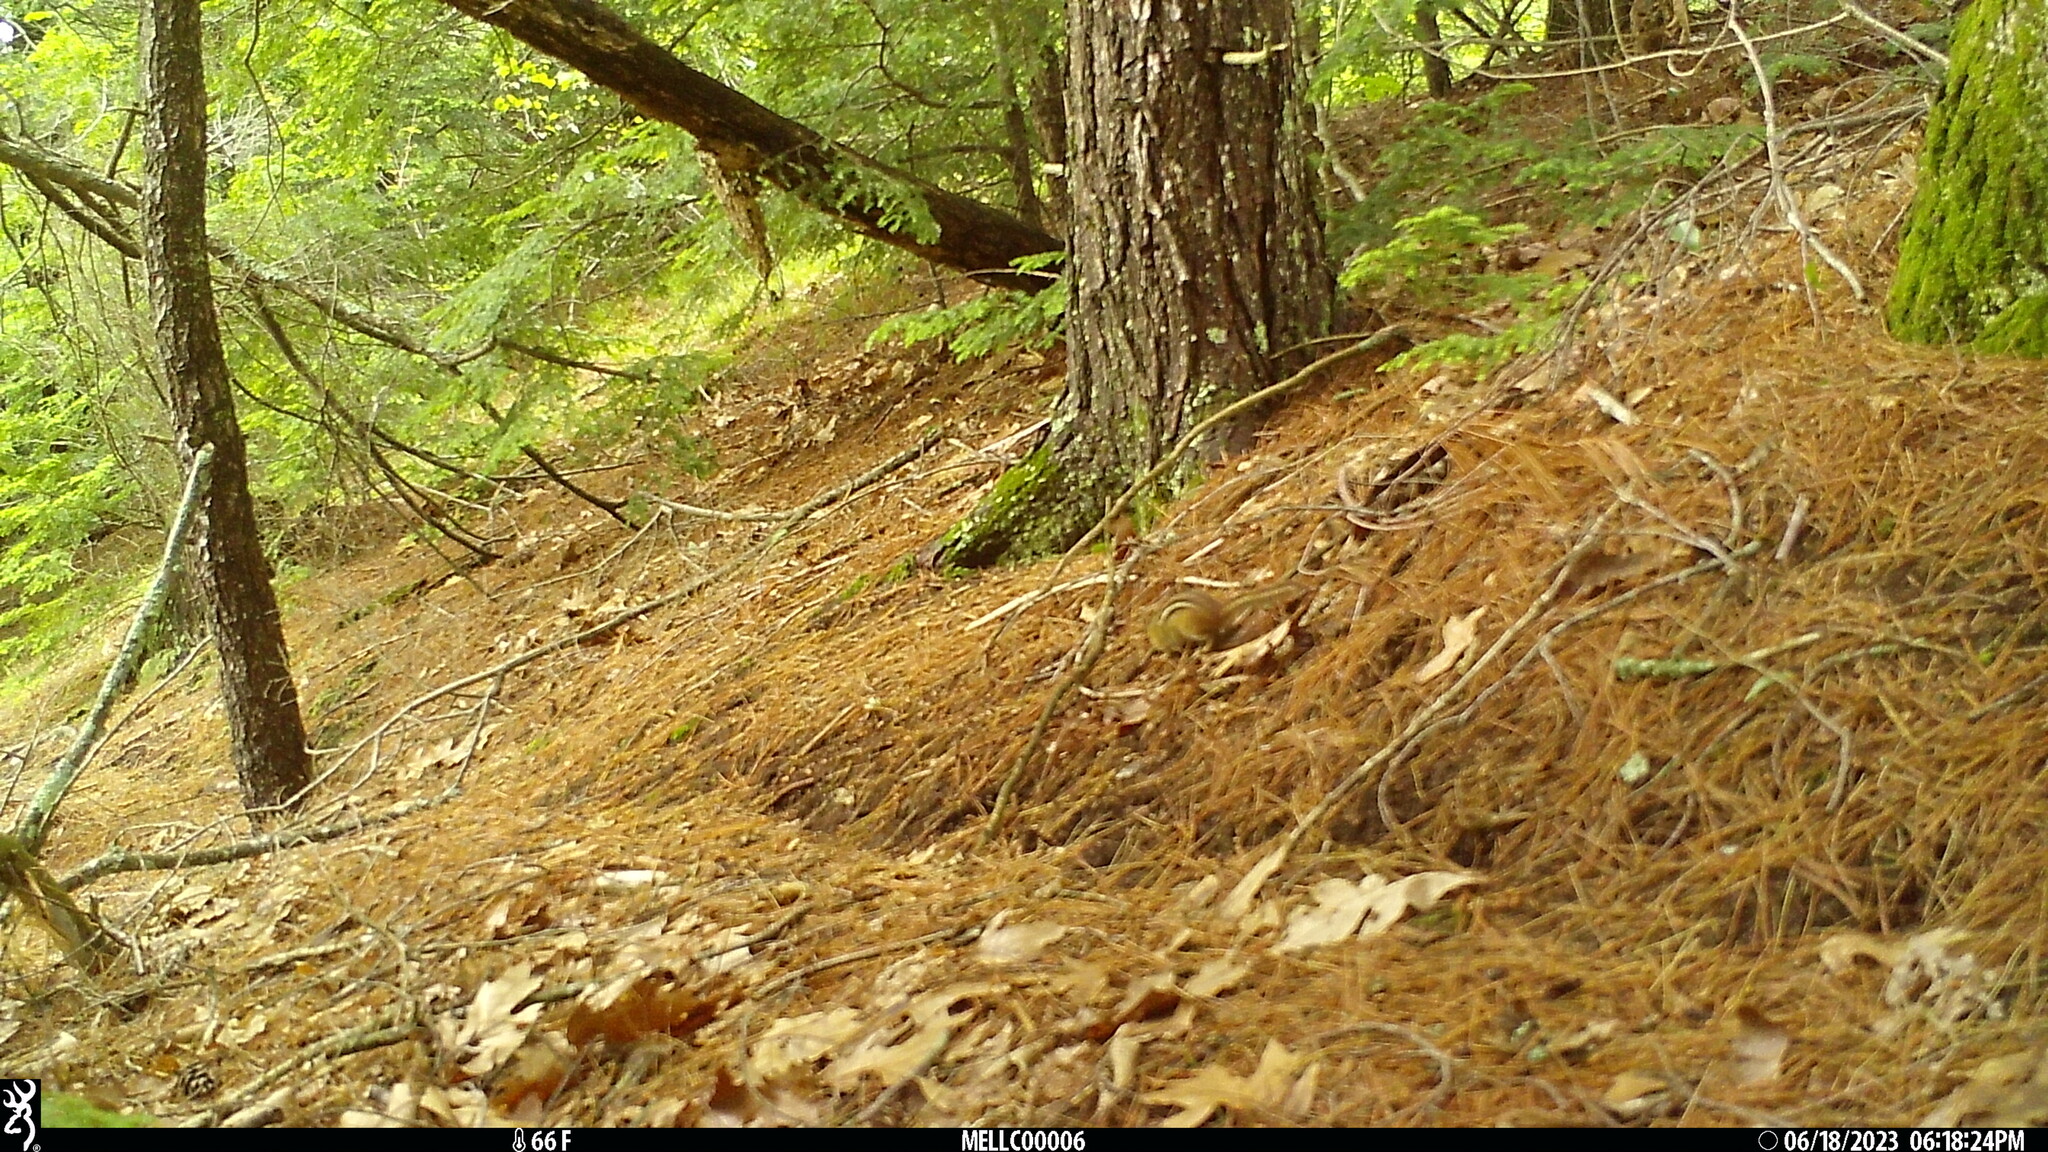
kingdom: Animalia
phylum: Chordata
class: Mammalia
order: Rodentia
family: Sciuridae
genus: Tamias
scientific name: Tamias striatus
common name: Eastern chipmunk
